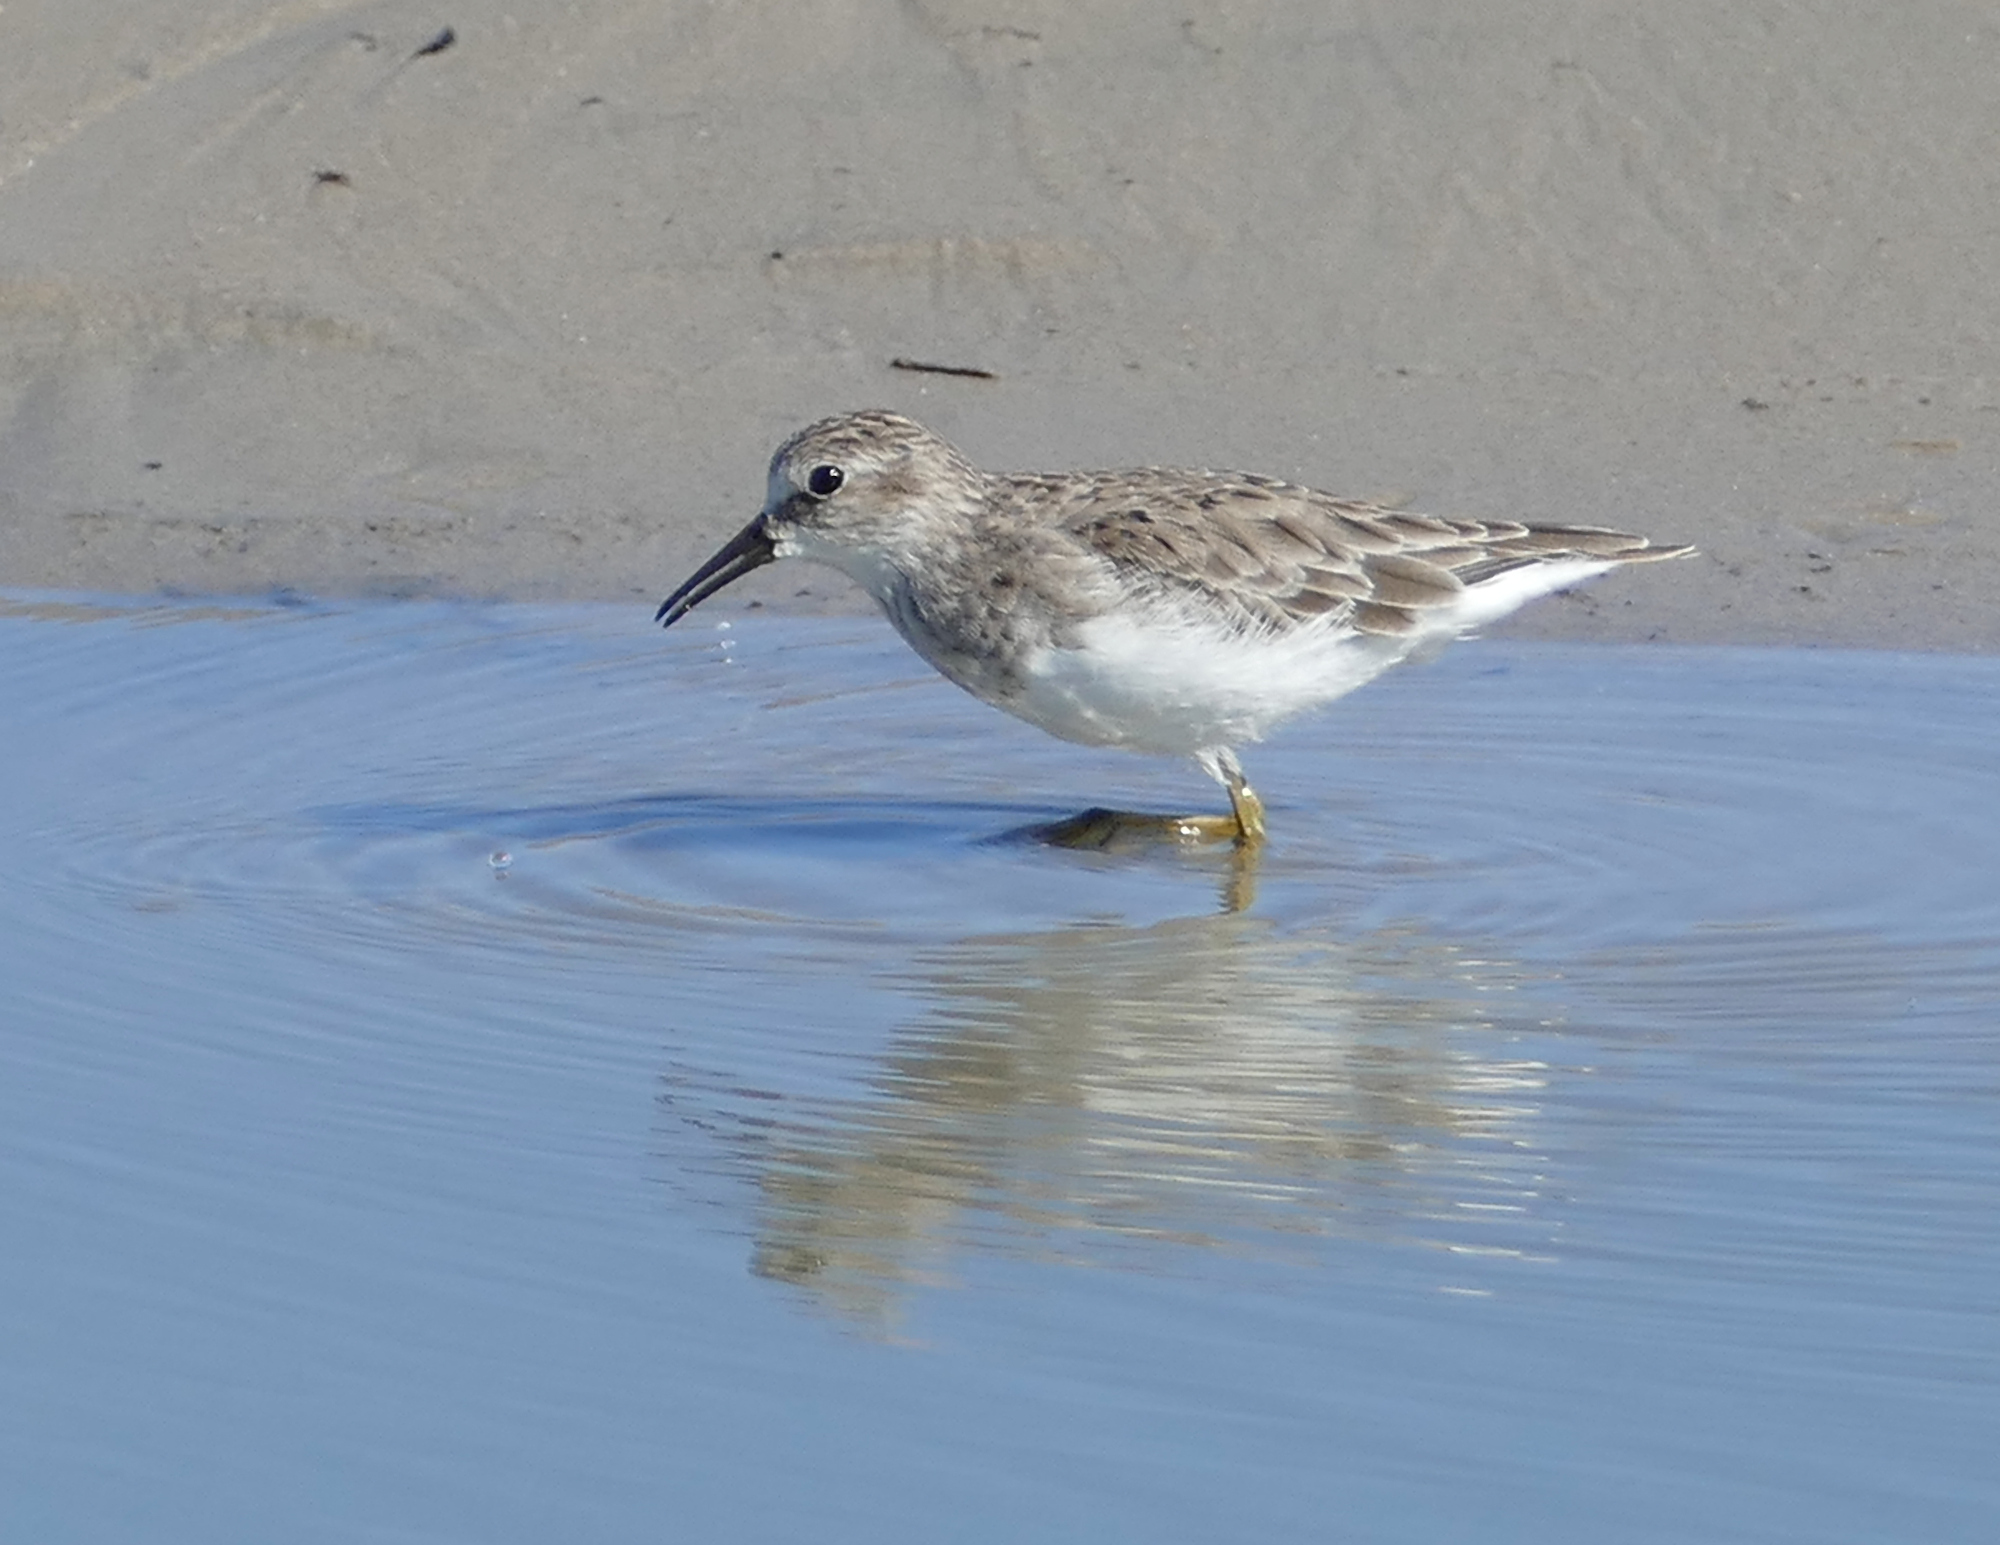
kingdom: Animalia
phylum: Chordata
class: Aves
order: Charadriiformes
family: Scolopacidae
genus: Calidris
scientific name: Calidris minutilla
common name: Least sandpiper
